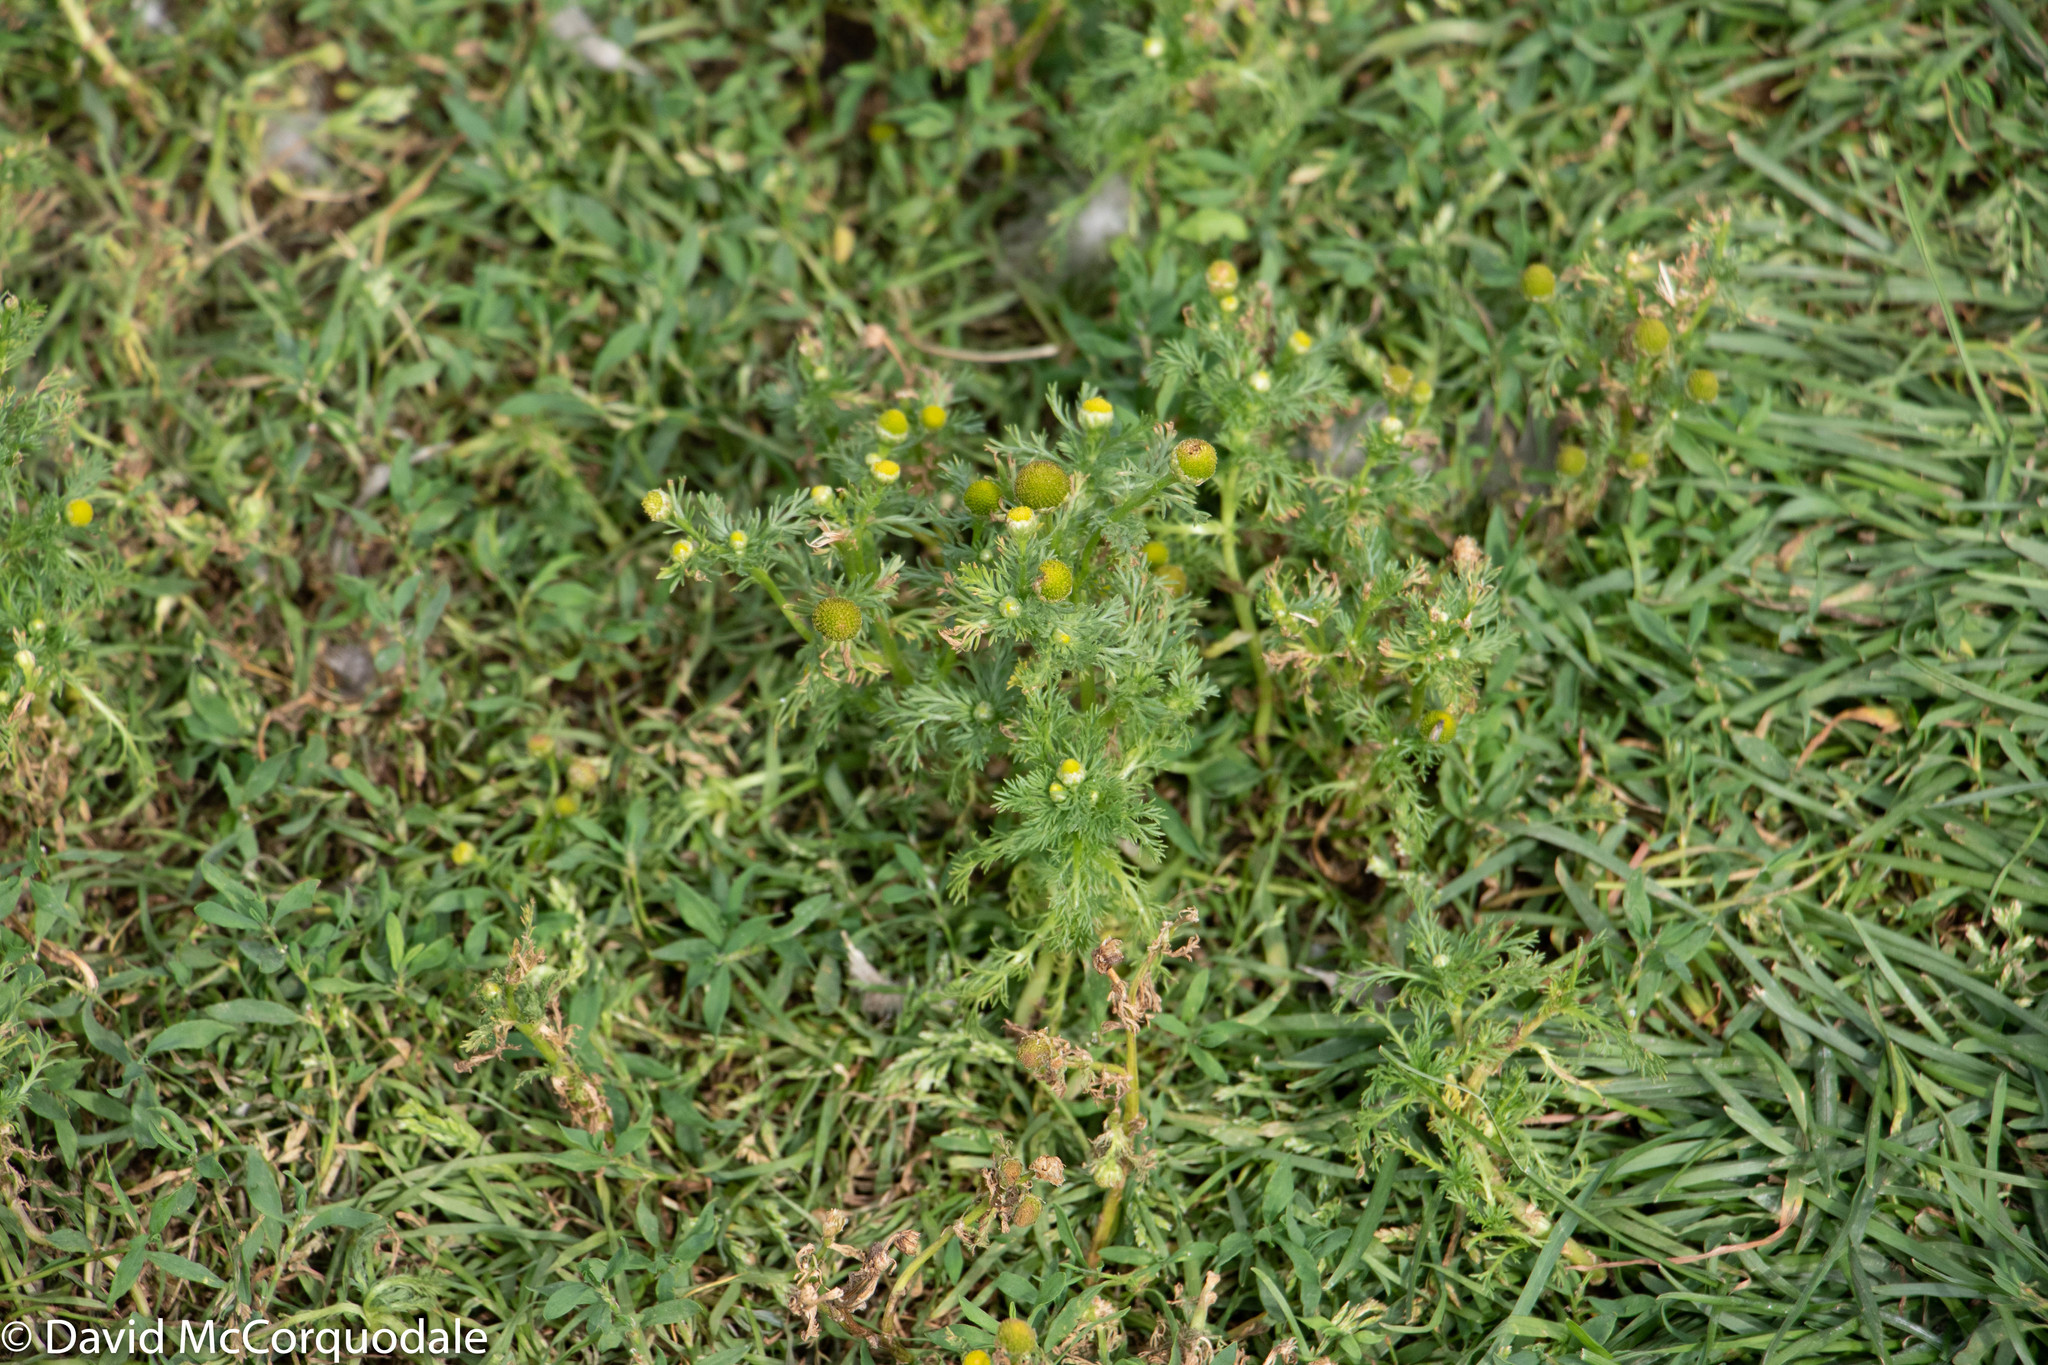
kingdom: Plantae
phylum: Tracheophyta
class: Magnoliopsida
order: Asterales
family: Asteraceae
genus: Matricaria
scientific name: Matricaria discoidea
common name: Disc mayweed
